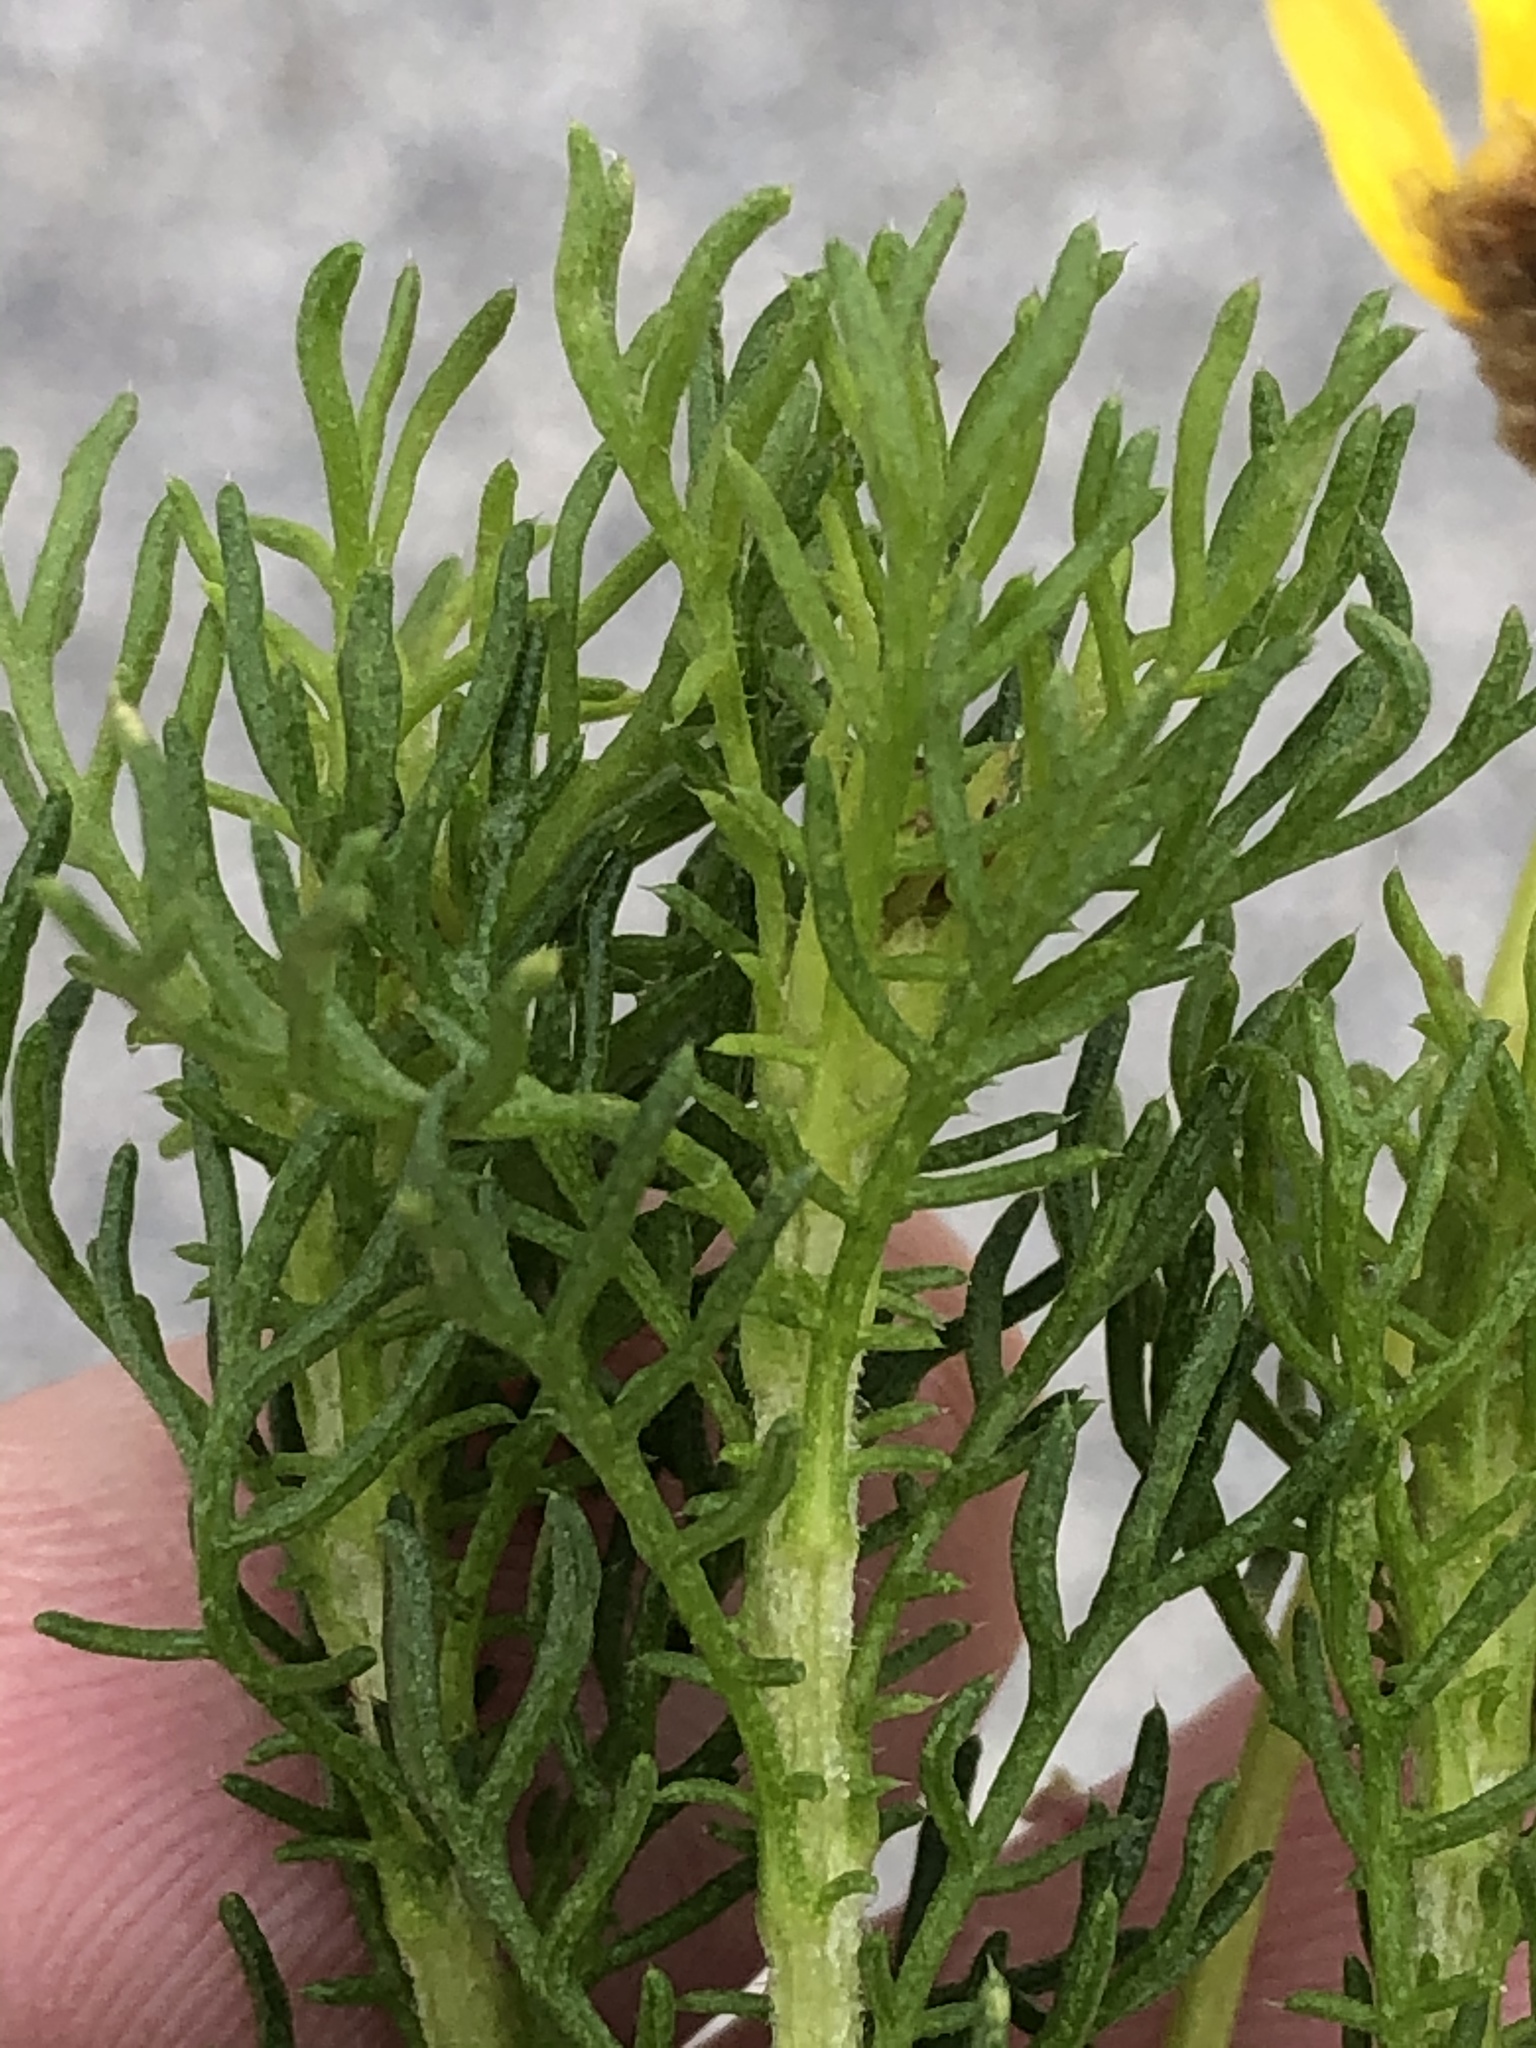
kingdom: Plantae
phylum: Tracheophyta
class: Magnoliopsida
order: Asterales
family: Asteraceae
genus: Ursinia
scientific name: Ursinia scariosa
